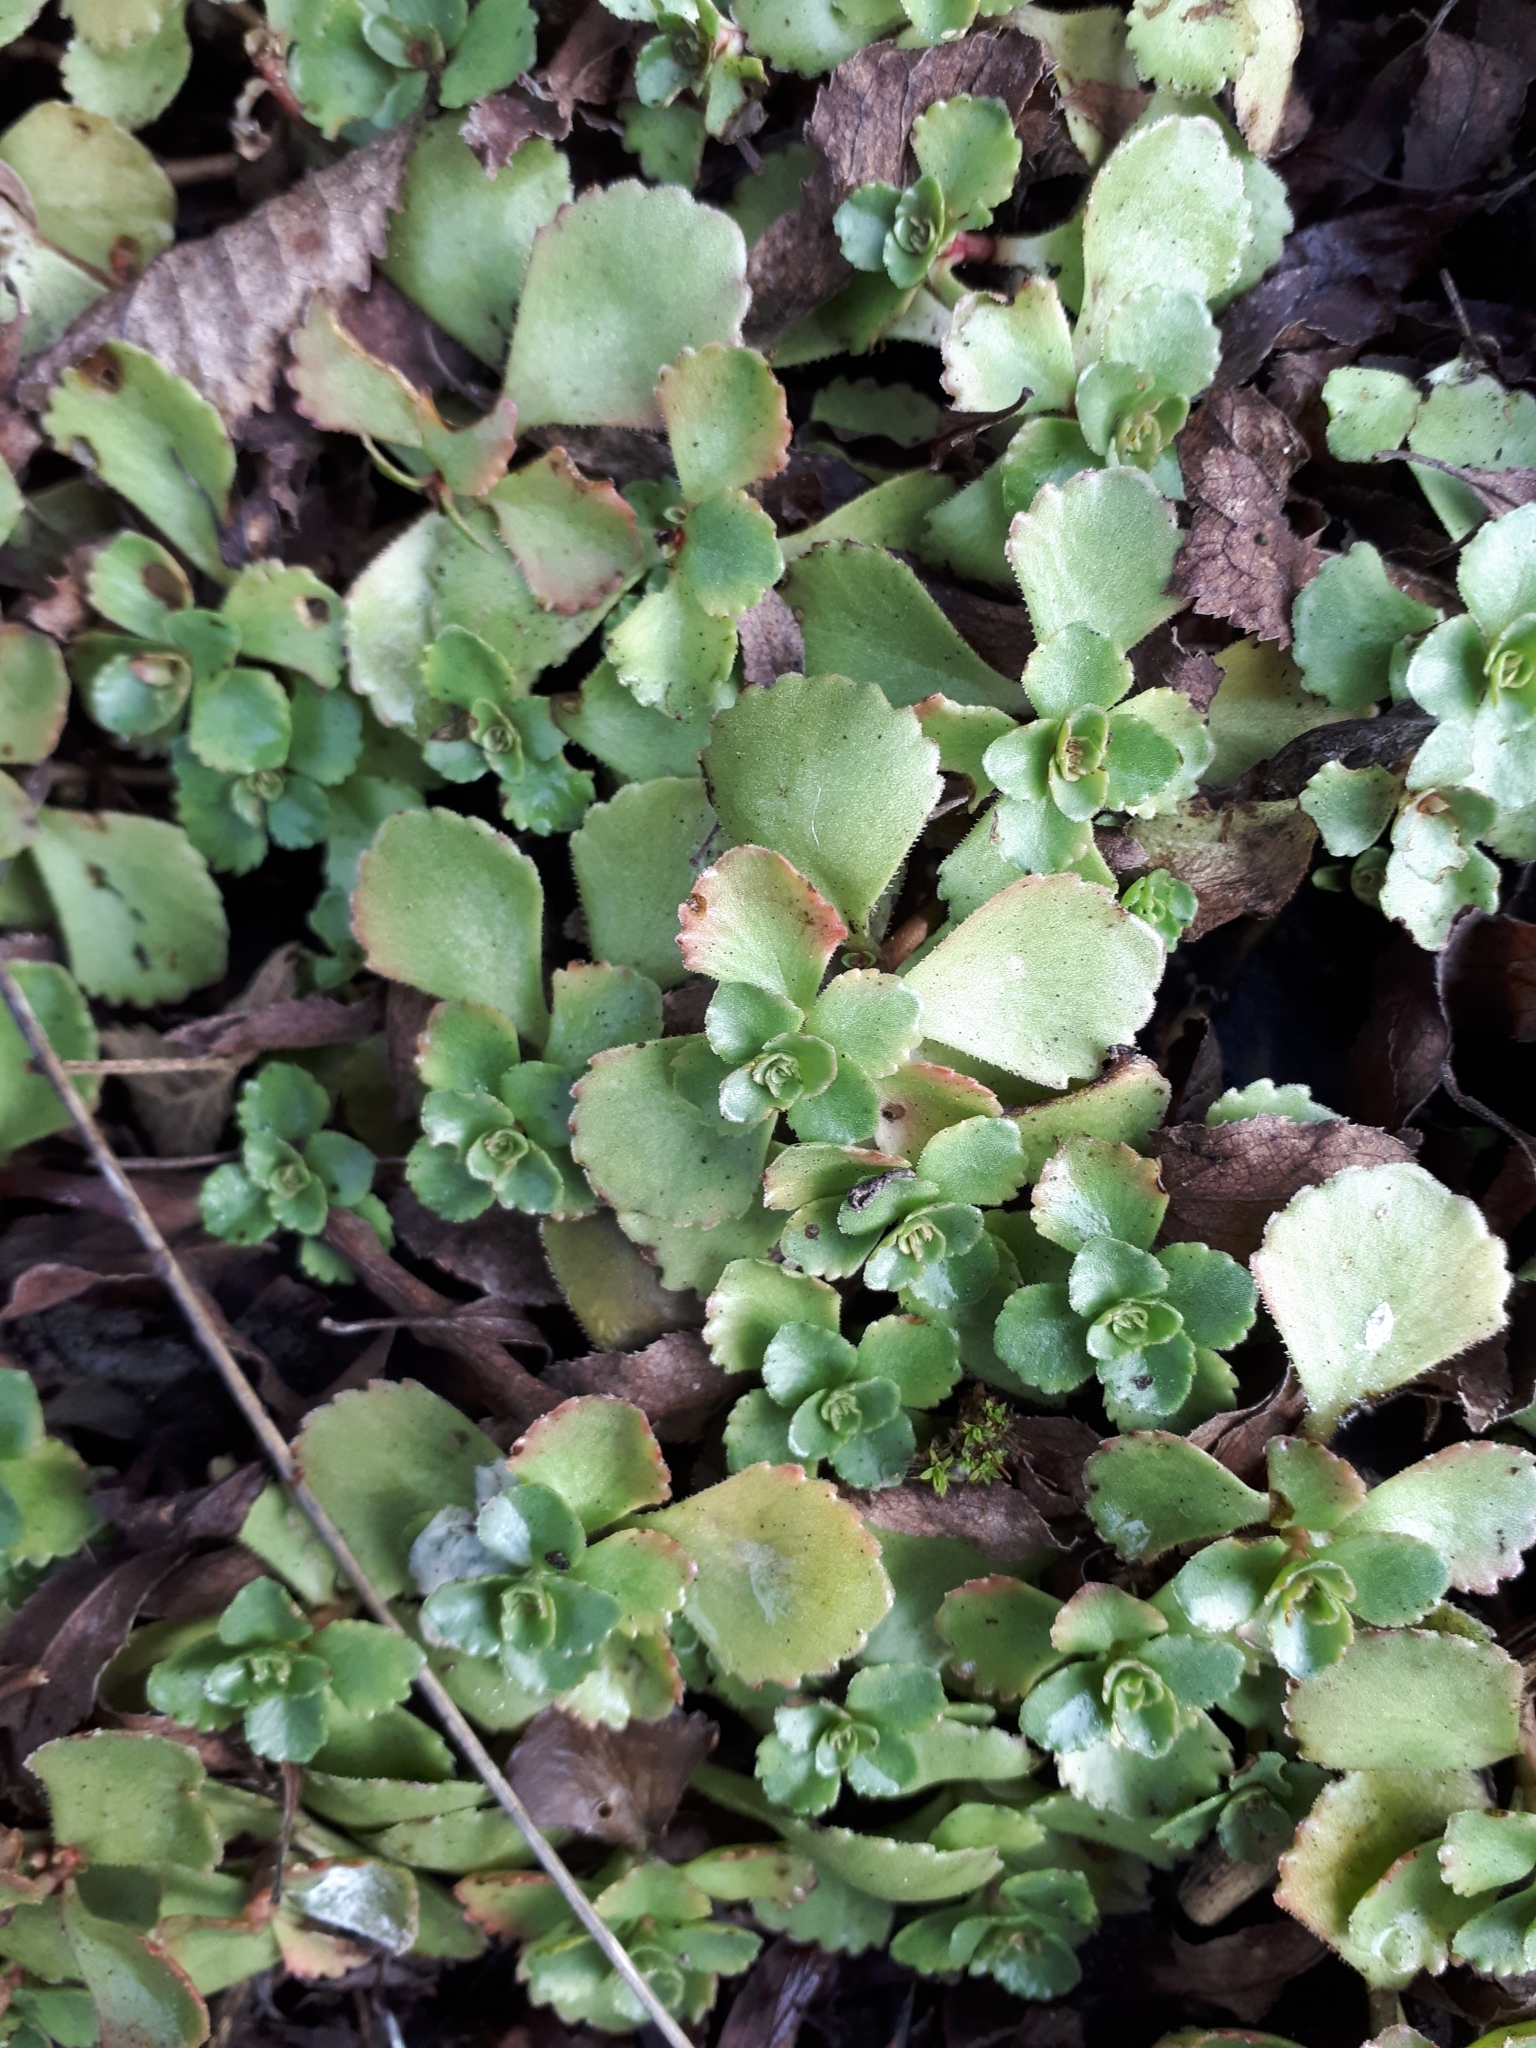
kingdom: Plantae
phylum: Tracheophyta
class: Magnoliopsida
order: Saxifragales
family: Crassulaceae
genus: Phedimus
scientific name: Phedimus spurius
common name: Caucasian stonecrop
